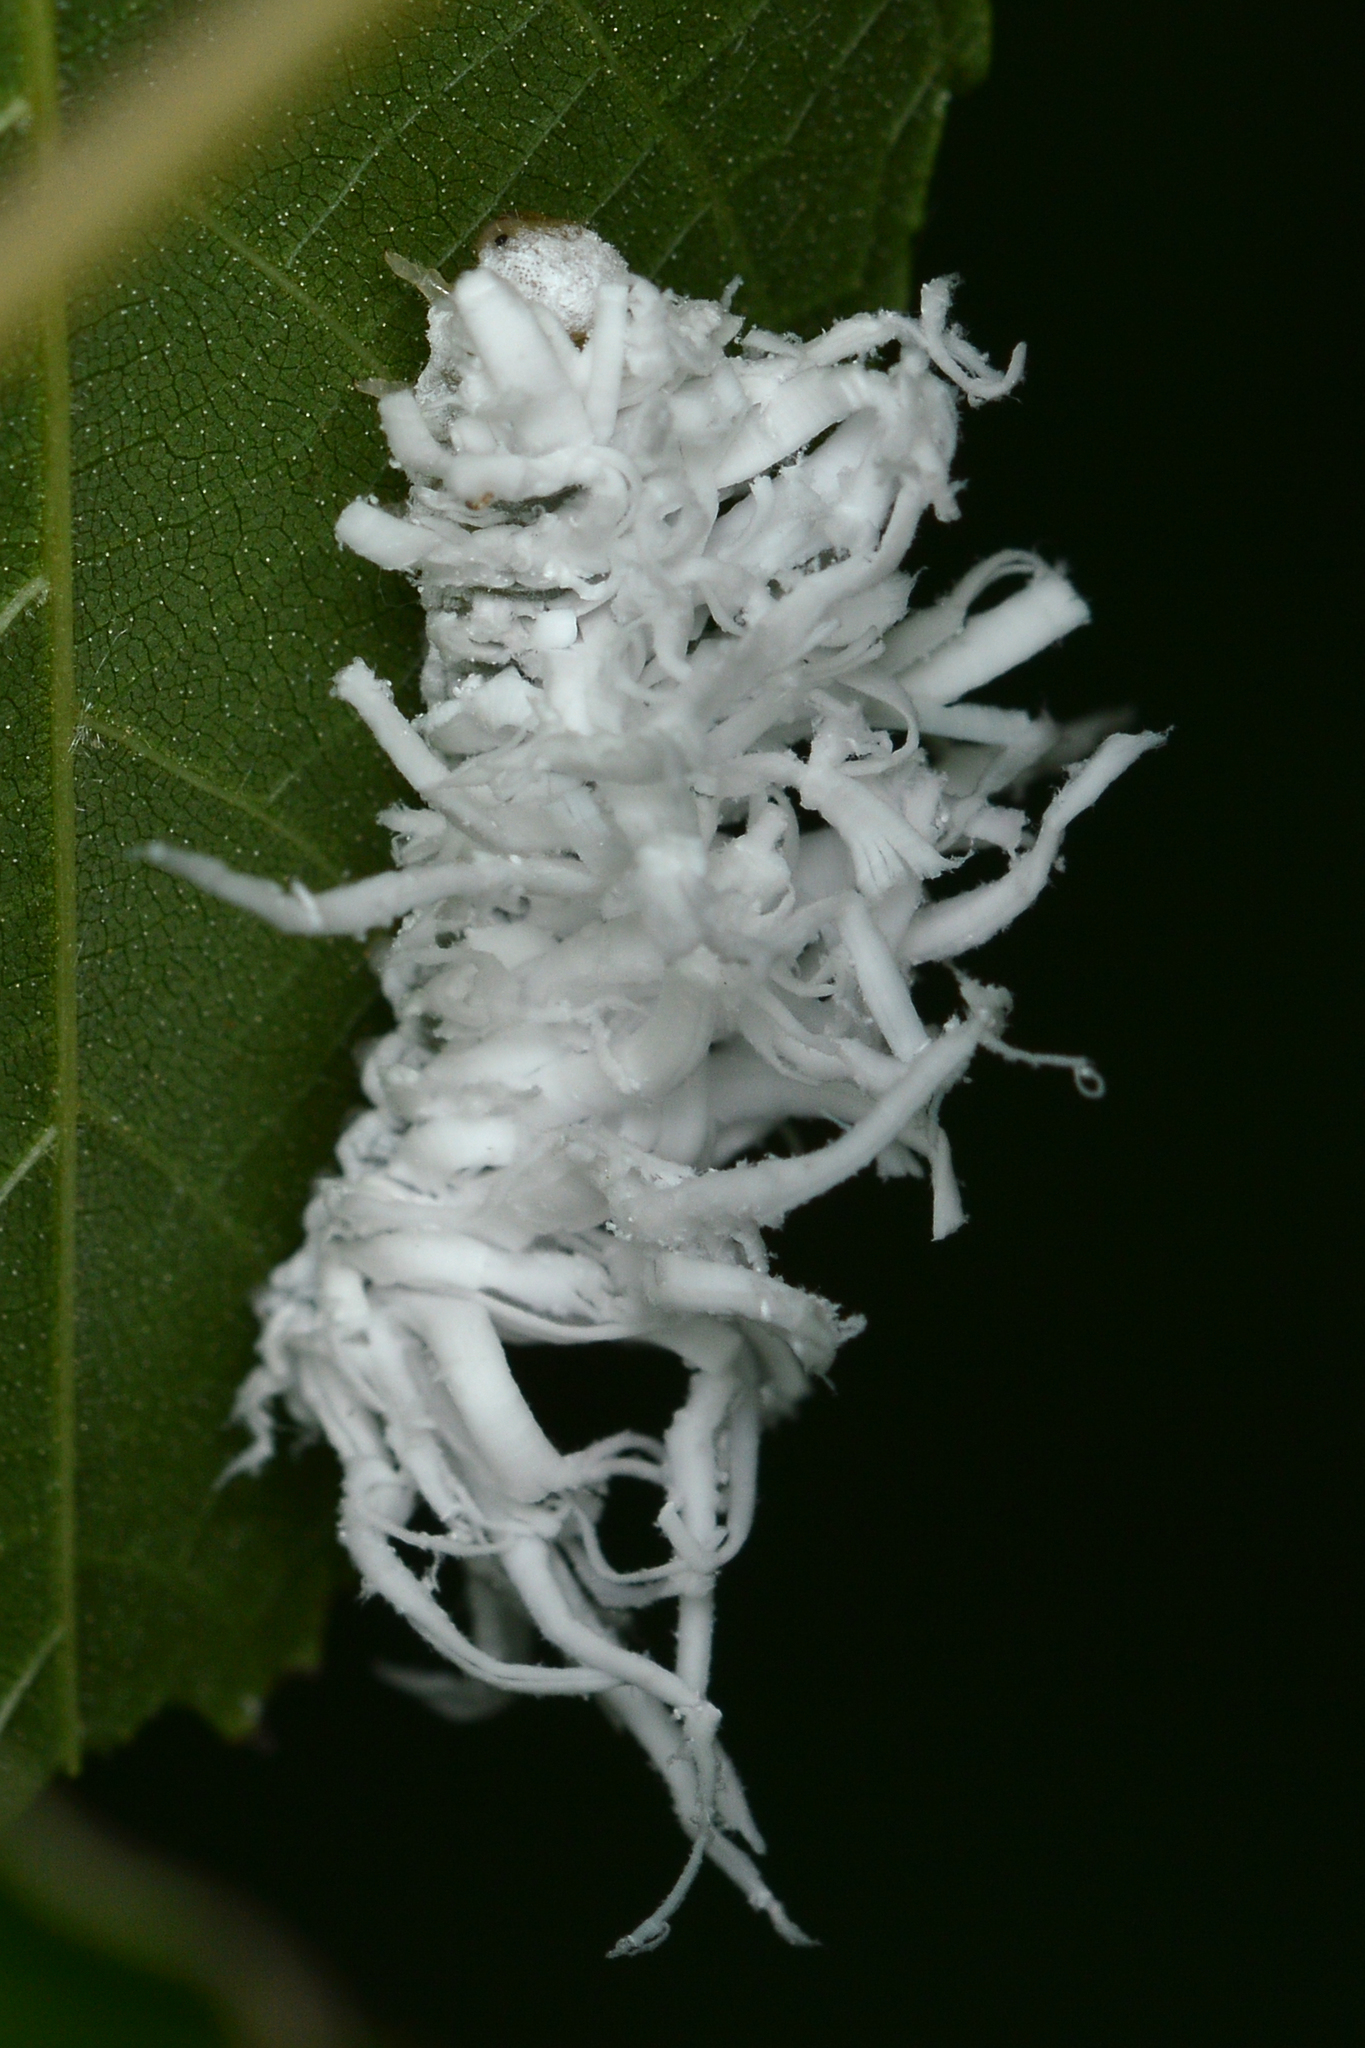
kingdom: Animalia
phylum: Arthropoda
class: Insecta
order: Hymenoptera
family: Tenthredinidae
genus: Eriocampa
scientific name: Eriocampa juglandis
